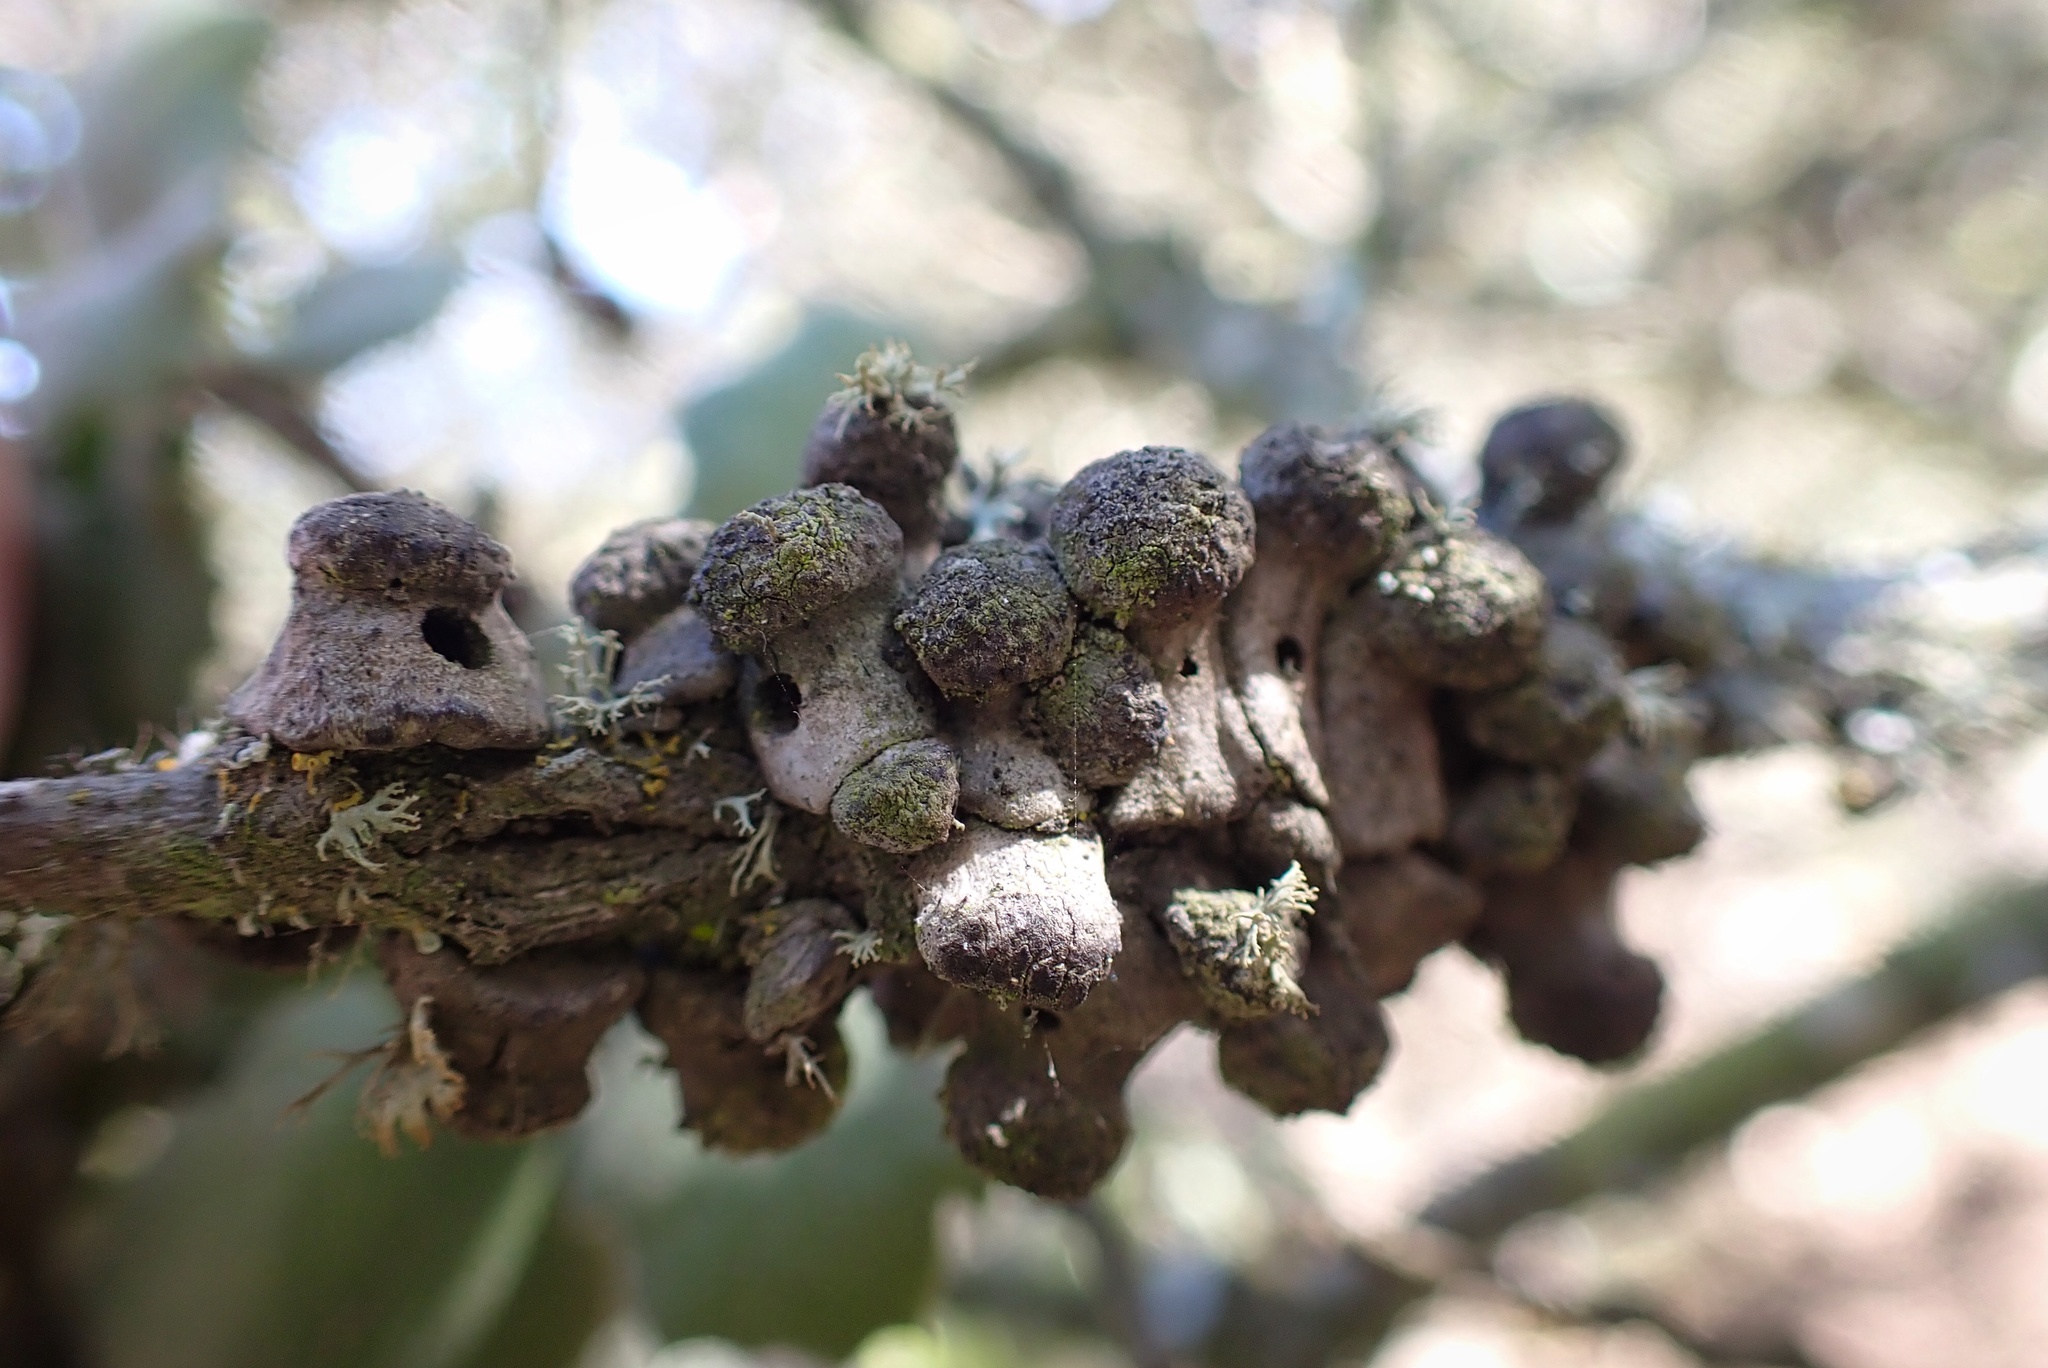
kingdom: Animalia
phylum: Arthropoda
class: Insecta
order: Hymenoptera
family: Cynipidae
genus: Disholcaspis
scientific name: Disholcaspis prehensa
